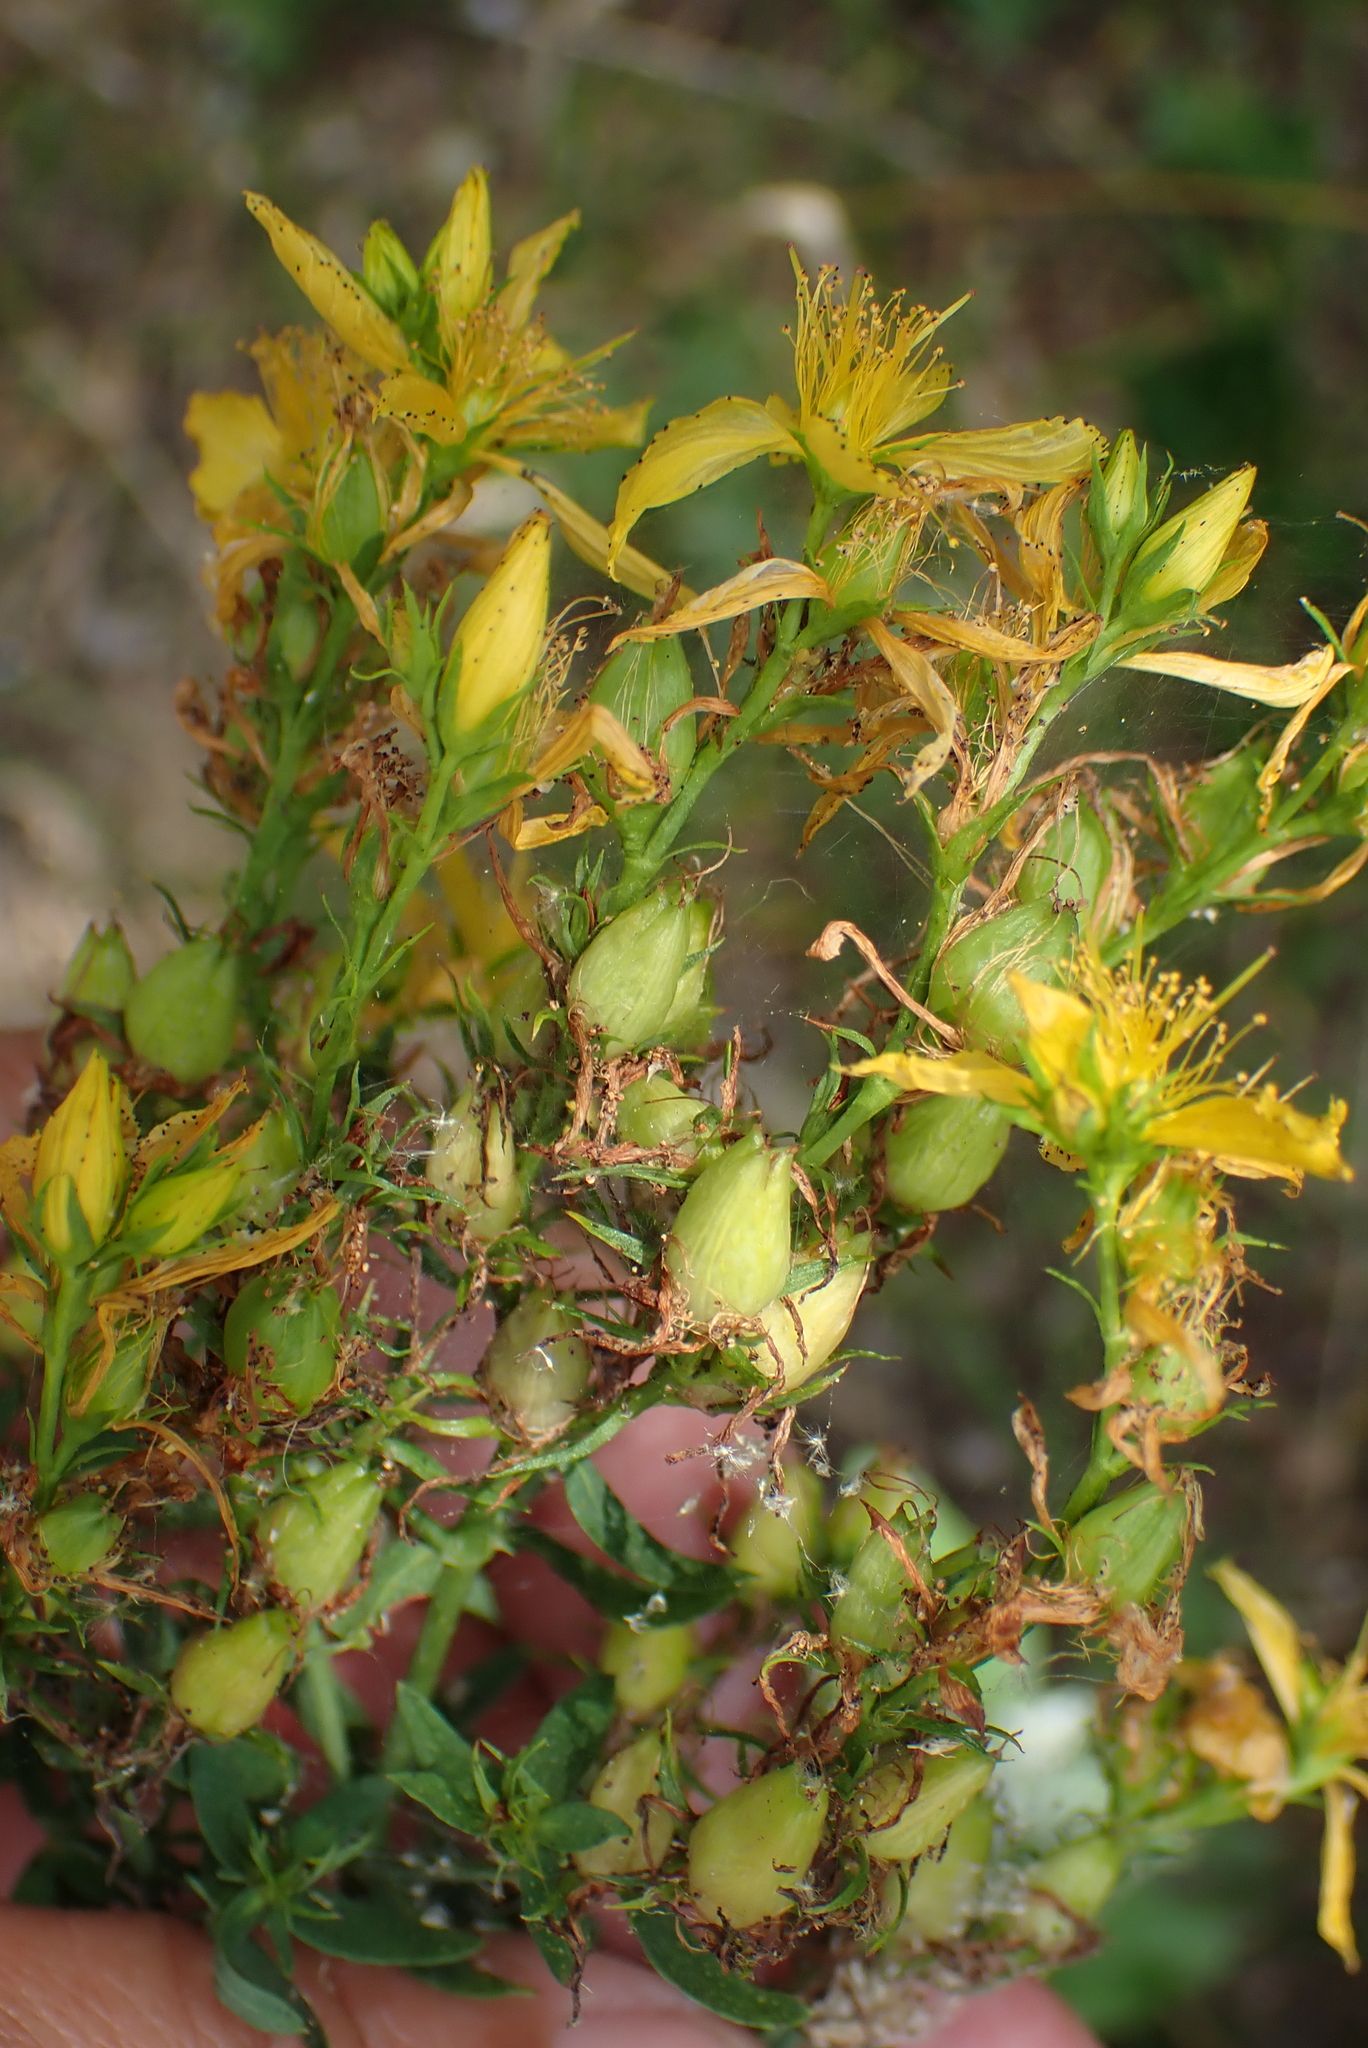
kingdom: Plantae
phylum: Tracheophyta
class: Magnoliopsida
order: Malpighiales
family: Hypericaceae
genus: Hypericum
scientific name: Hypericum perforatum
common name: Common st. johnswort
